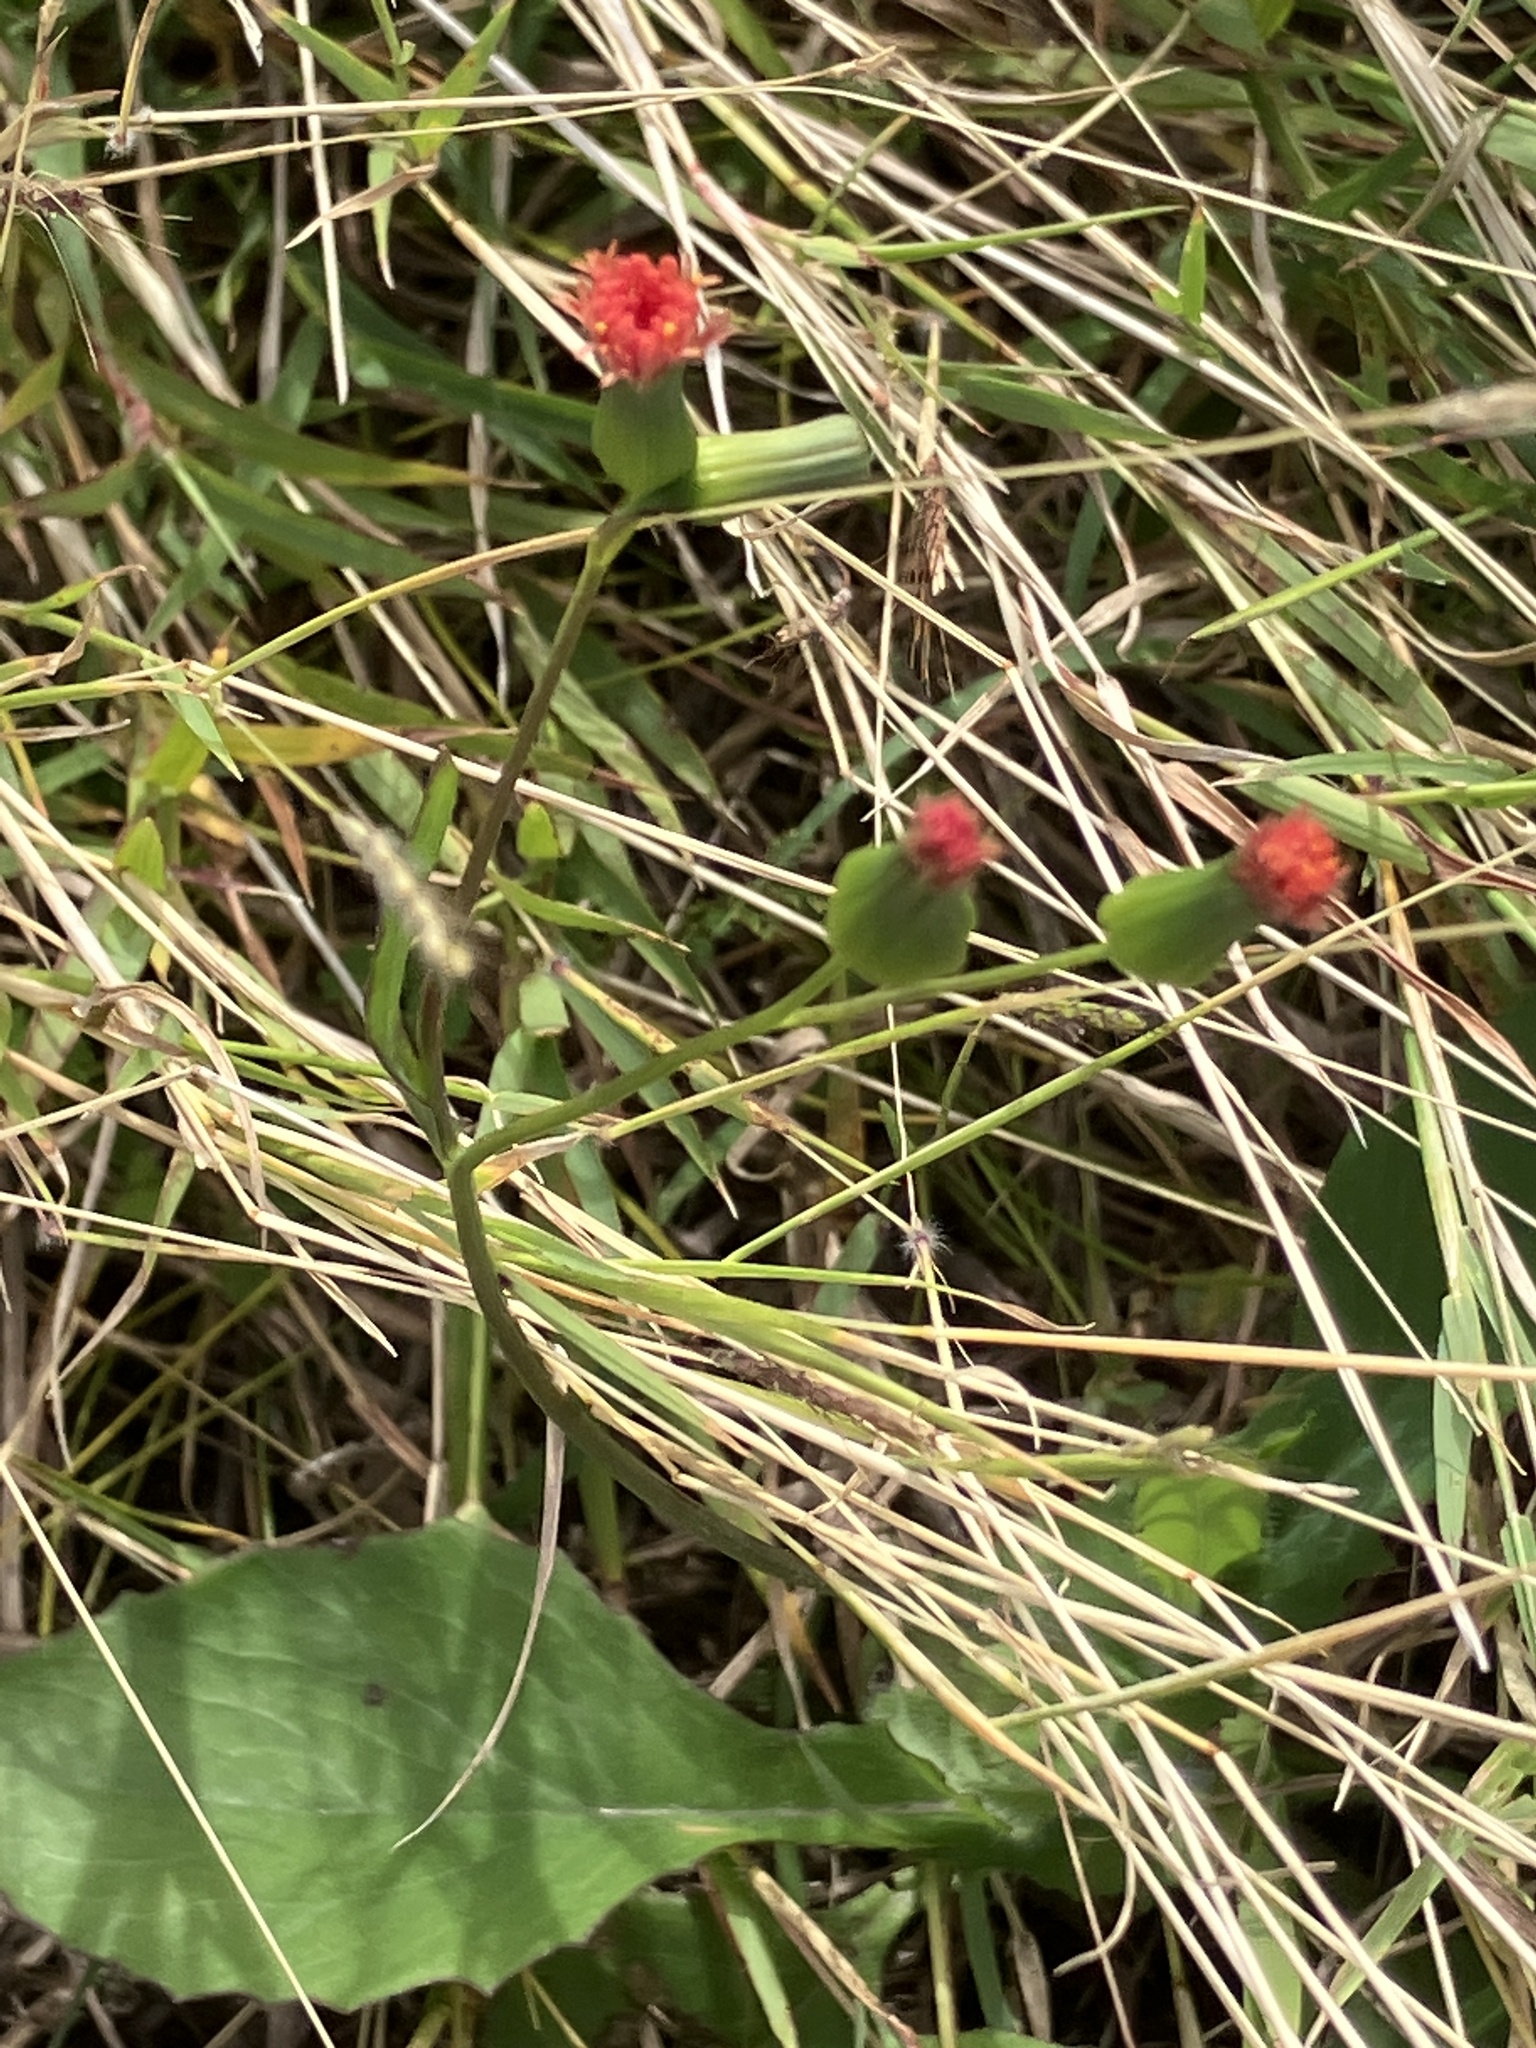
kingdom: Plantae
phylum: Tracheophyta
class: Magnoliopsida
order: Asterales
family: Asteraceae
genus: Emilia
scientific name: Emilia fosbergii
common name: Florida tasselflower
